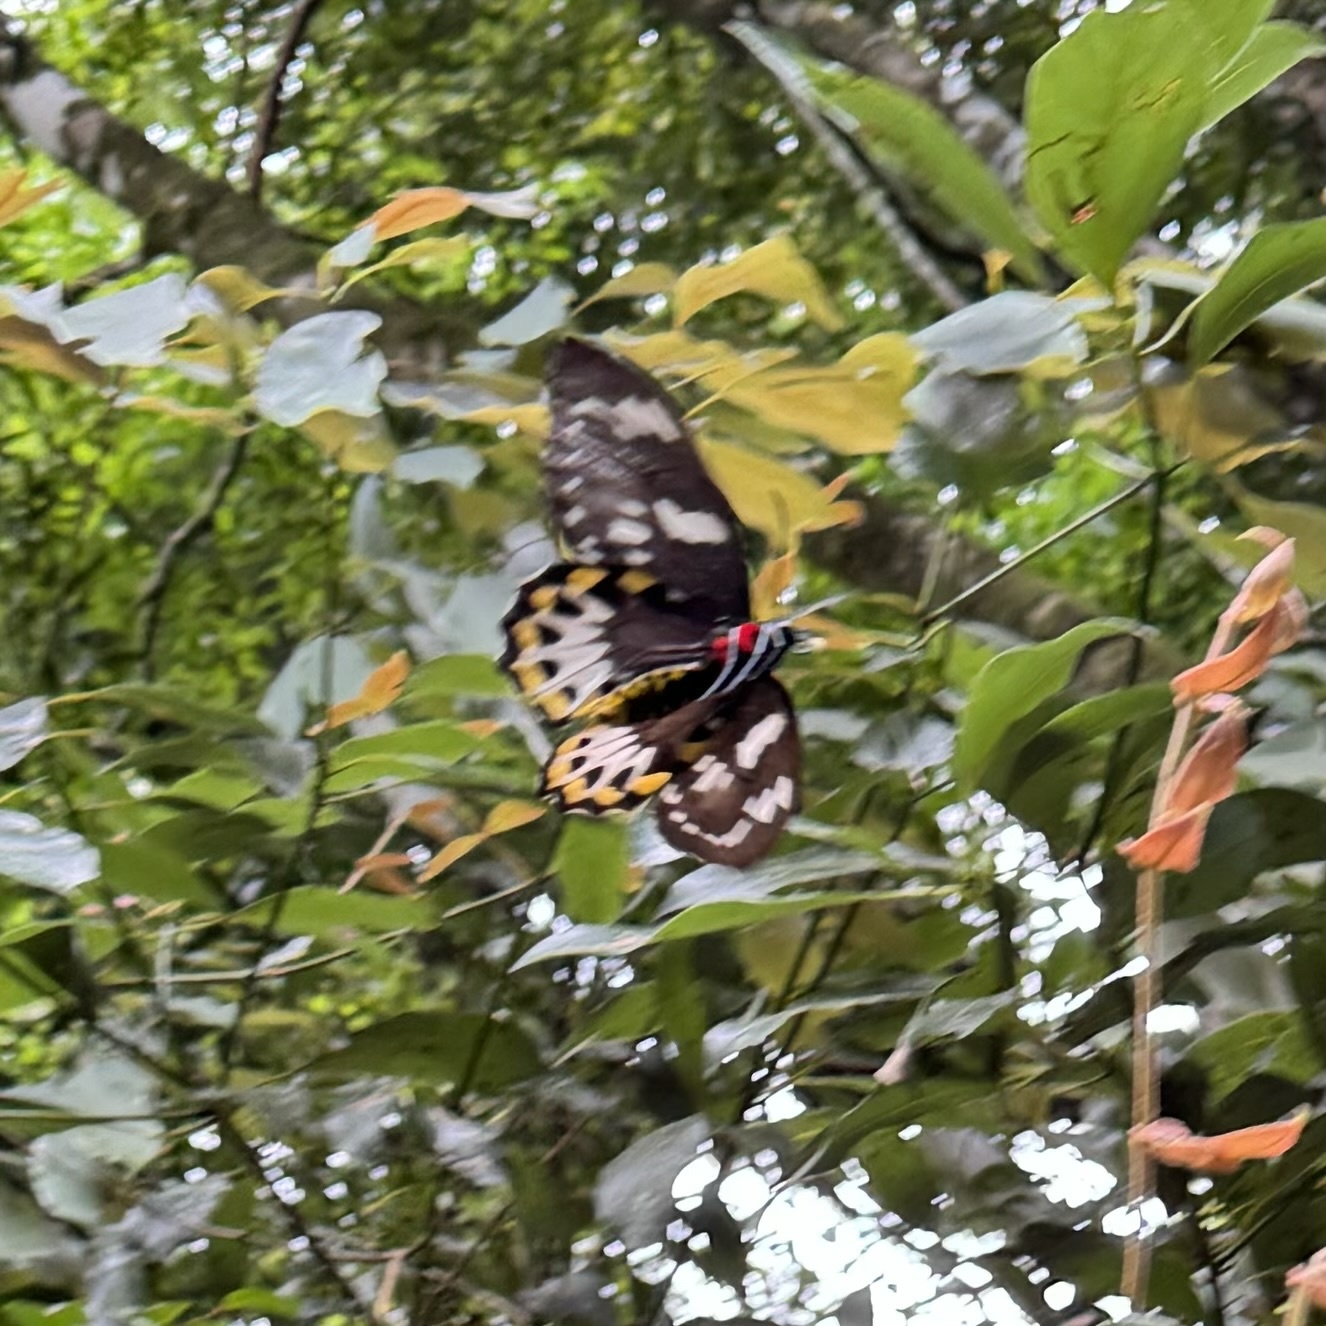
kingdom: Animalia
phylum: Arthropoda
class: Insecta
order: Lepidoptera
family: Papilionidae
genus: Ornithoptera
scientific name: Ornithoptera richmondia
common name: Richmond birdwing
